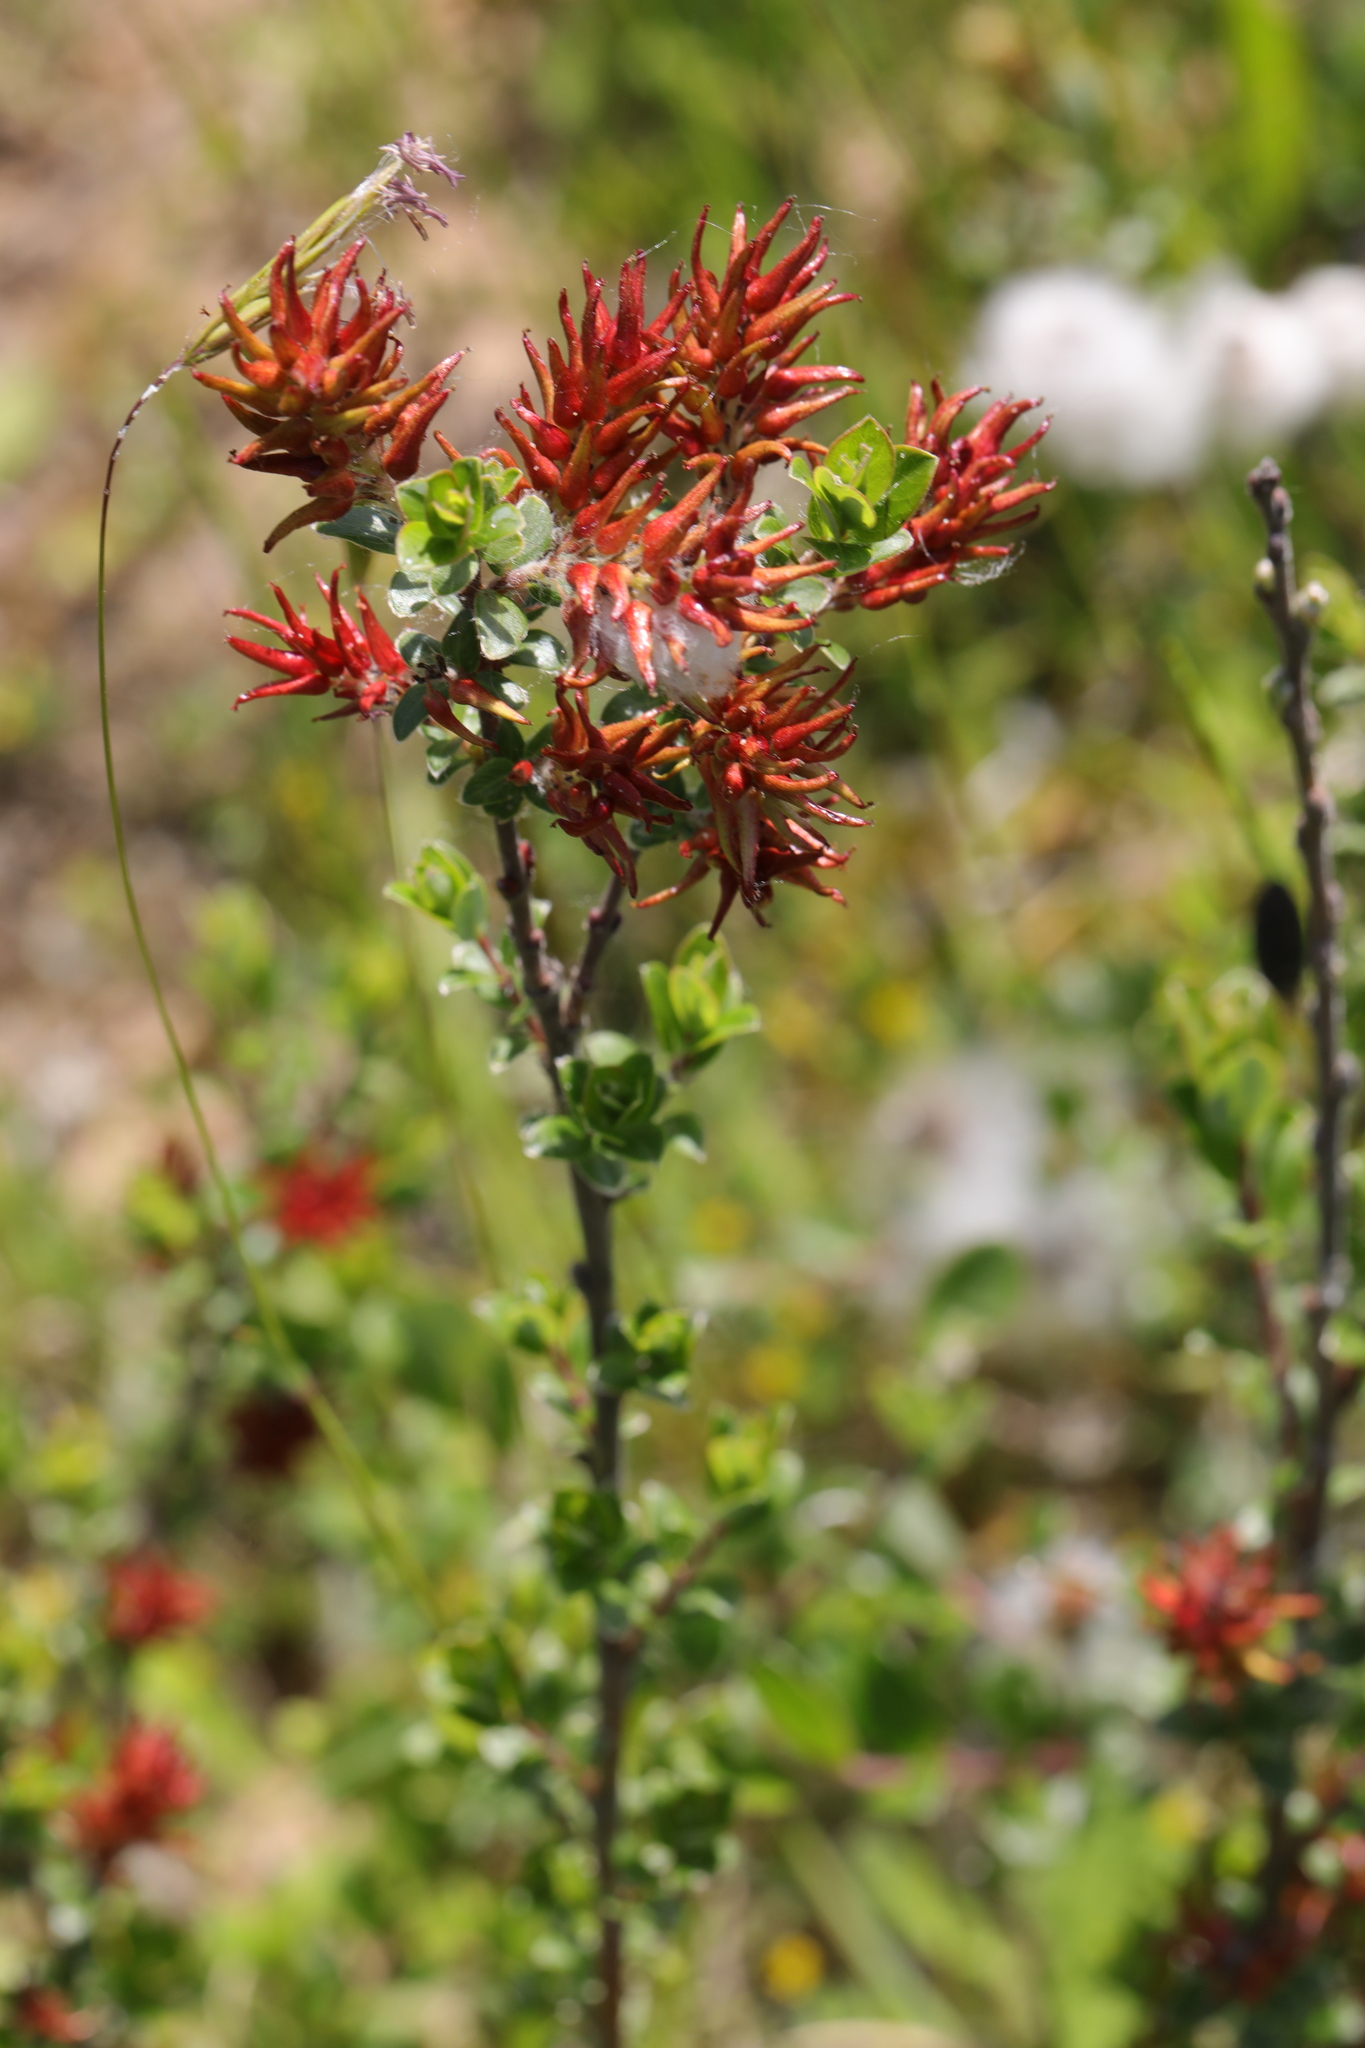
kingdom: Plantae
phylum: Tracheophyta
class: Magnoliopsida
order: Malpighiales
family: Salicaceae
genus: Salix
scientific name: Salix repens
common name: Creeping willow
